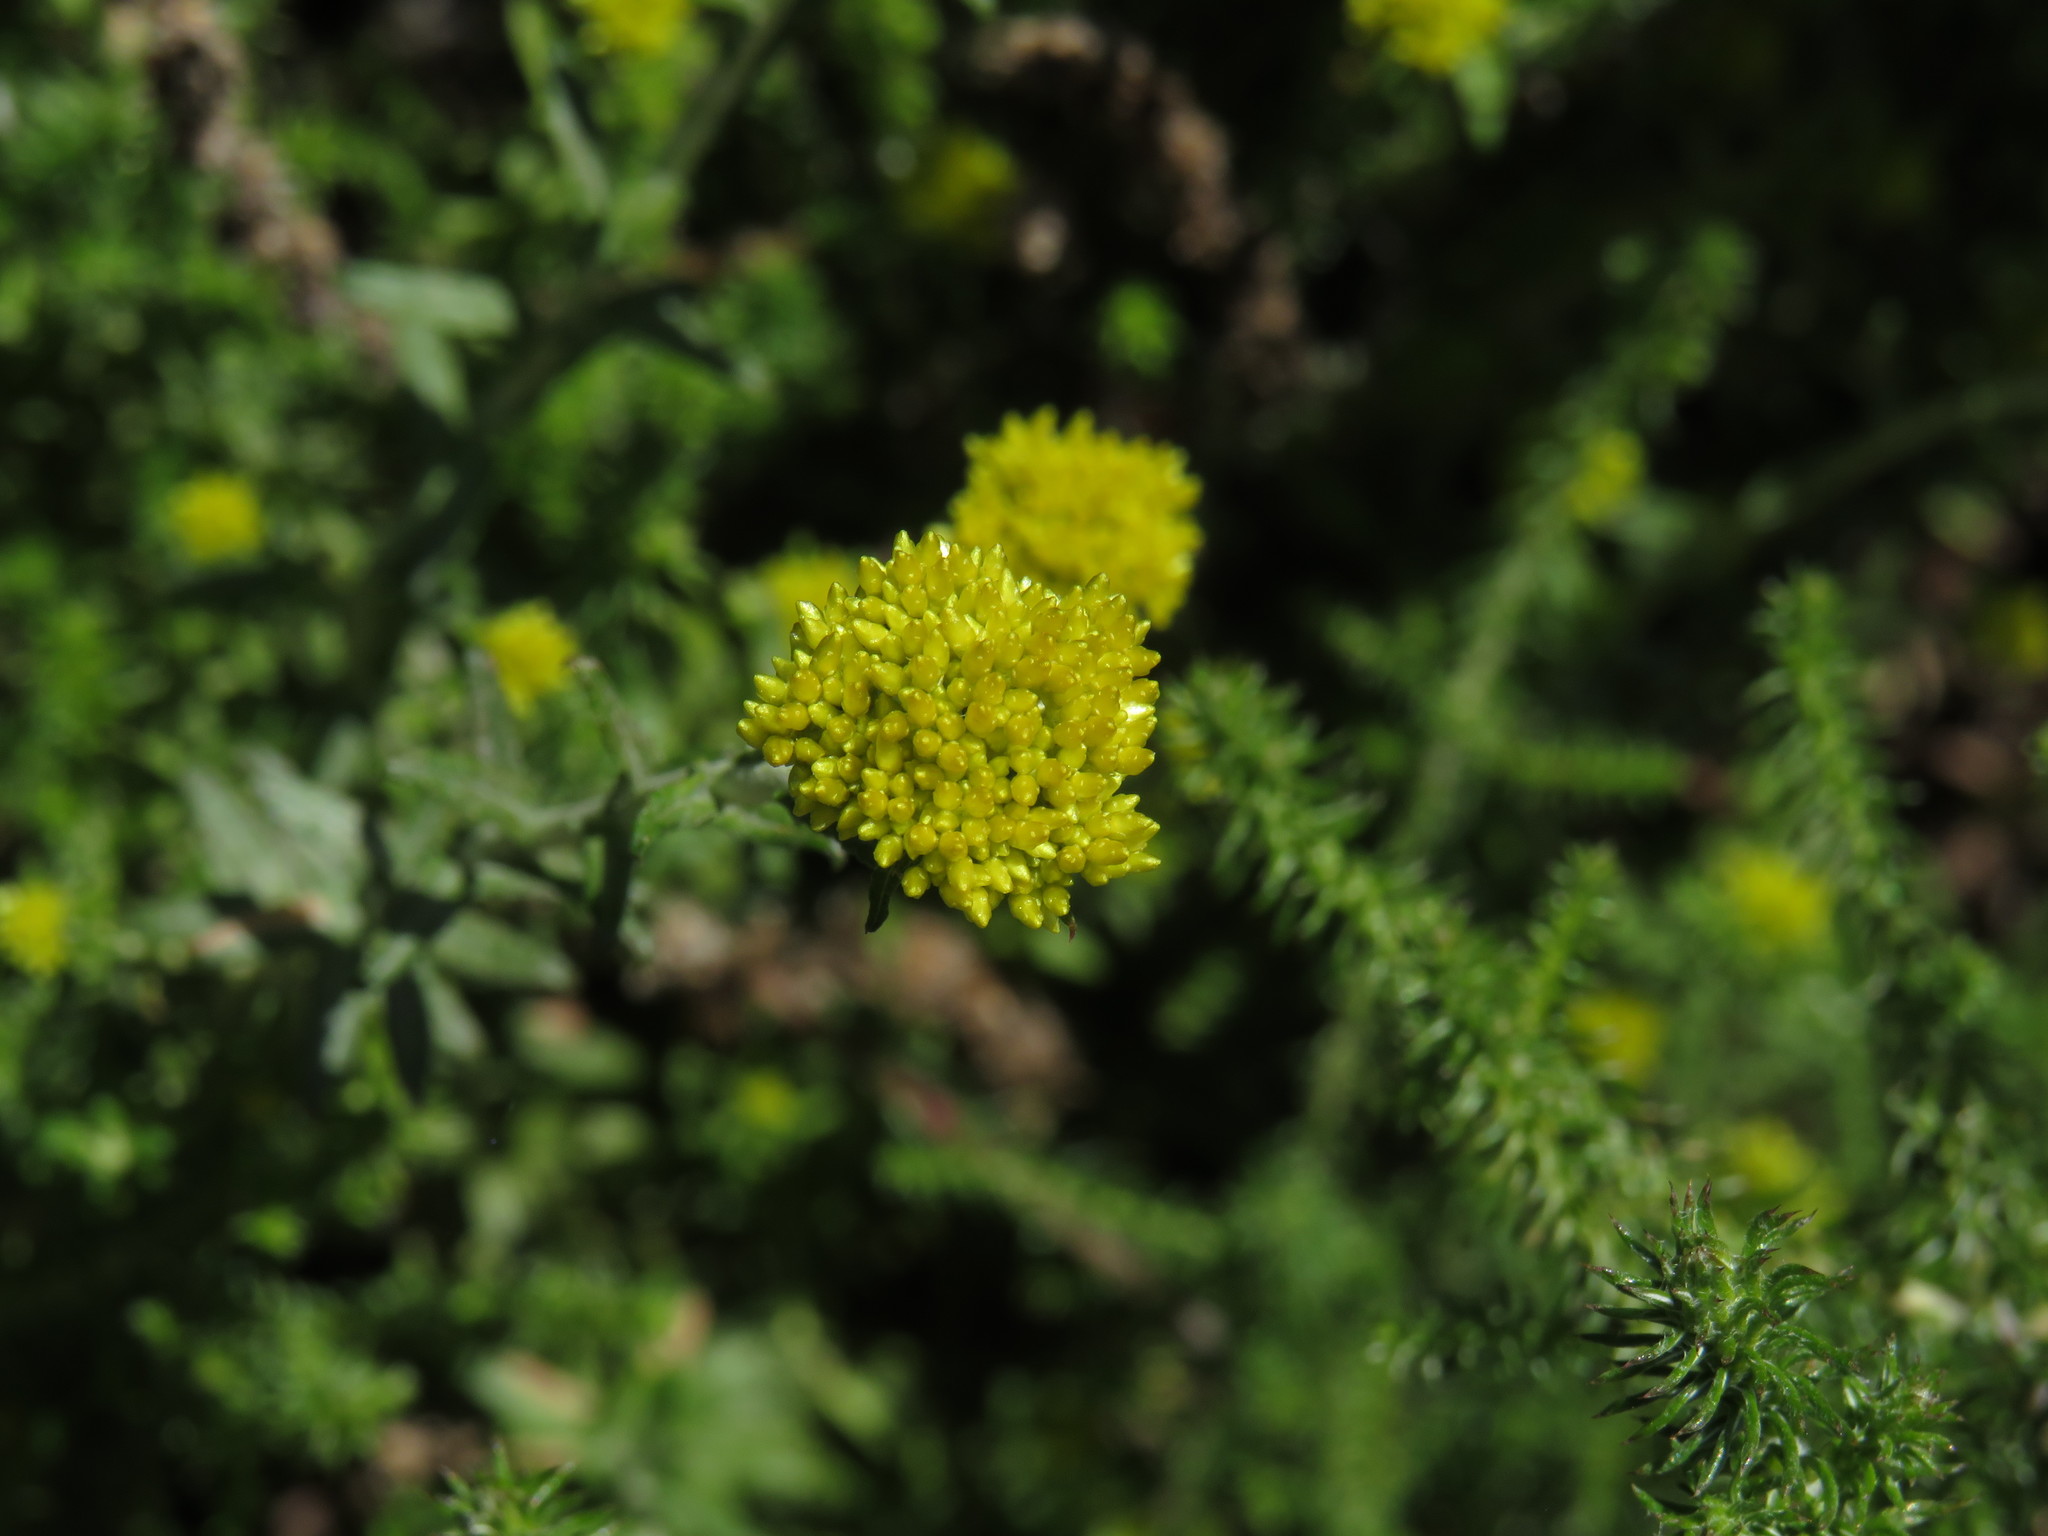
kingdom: Plantae
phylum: Tracheophyta
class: Magnoliopsida
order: Asterales
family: Asteraceae
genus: Helichrysum
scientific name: Helichrysum cymosum
